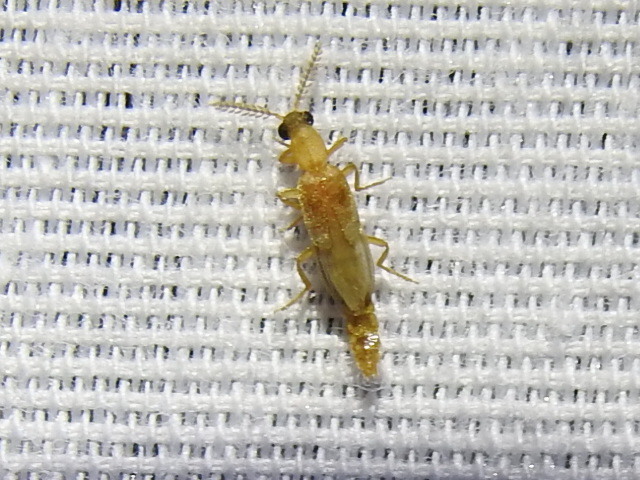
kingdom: Animalia
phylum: Arthropoda
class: Insecta
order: Coleoptera
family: Phengodidae
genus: Cenophengus
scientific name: Cenophengus pallidus
